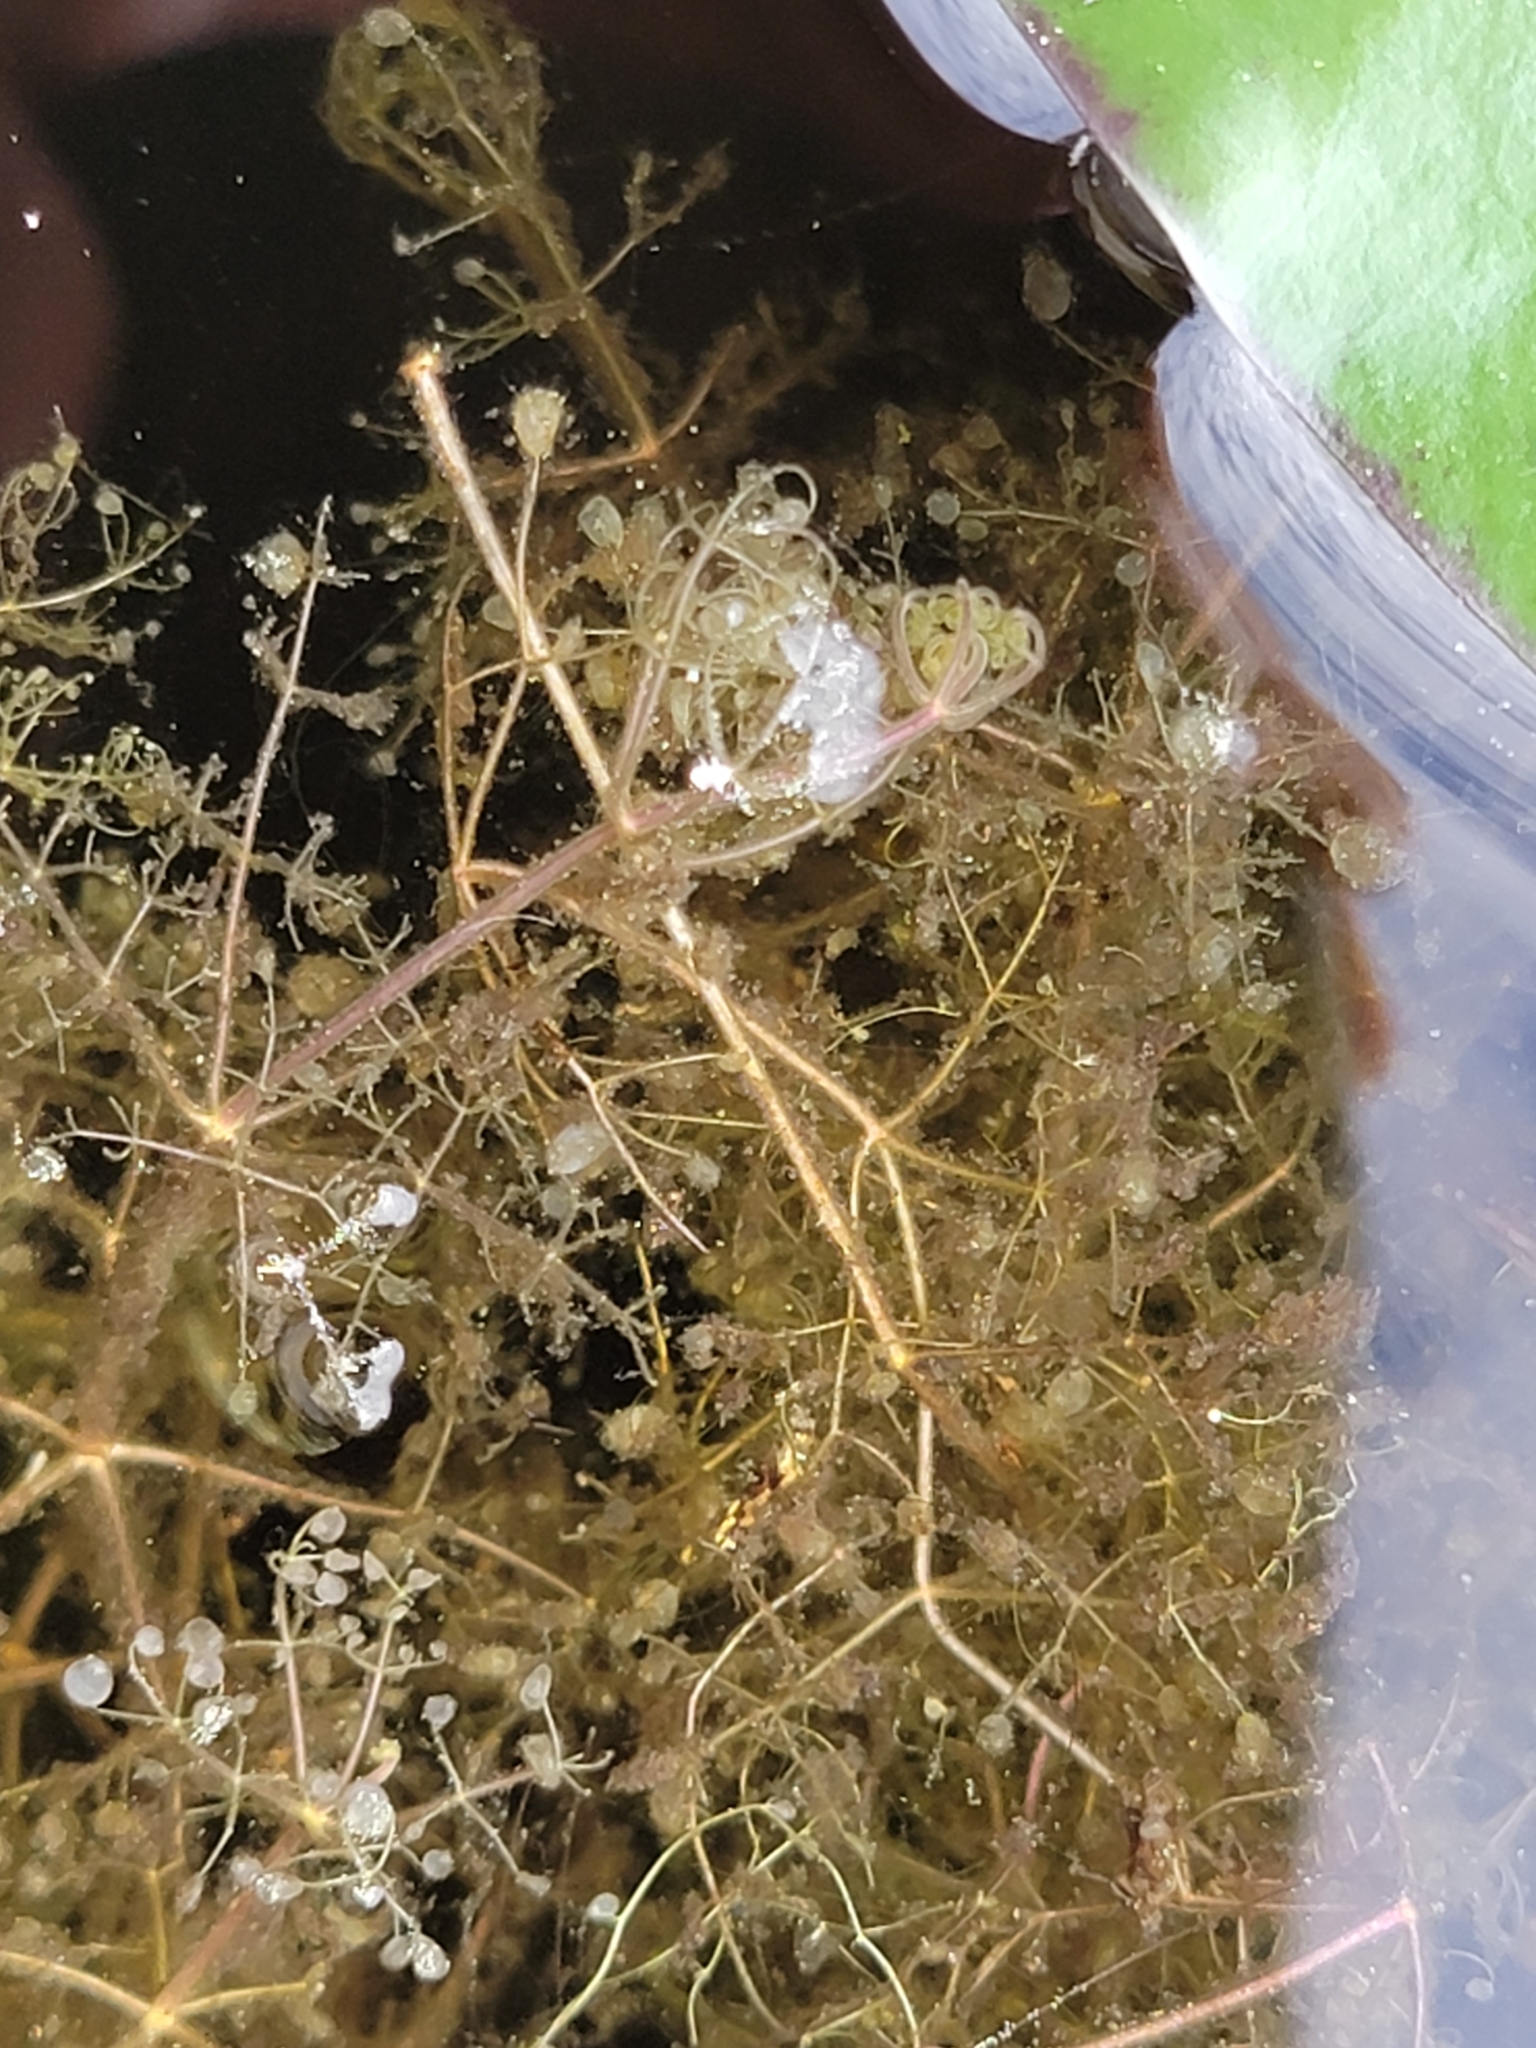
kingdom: Plantae
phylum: Tracheophyta
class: Magnoliopsida
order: Lamiales
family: Lentibulariaceae
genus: Utricularia
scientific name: Utricularia purpurea
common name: Eastern purple bladderwort
